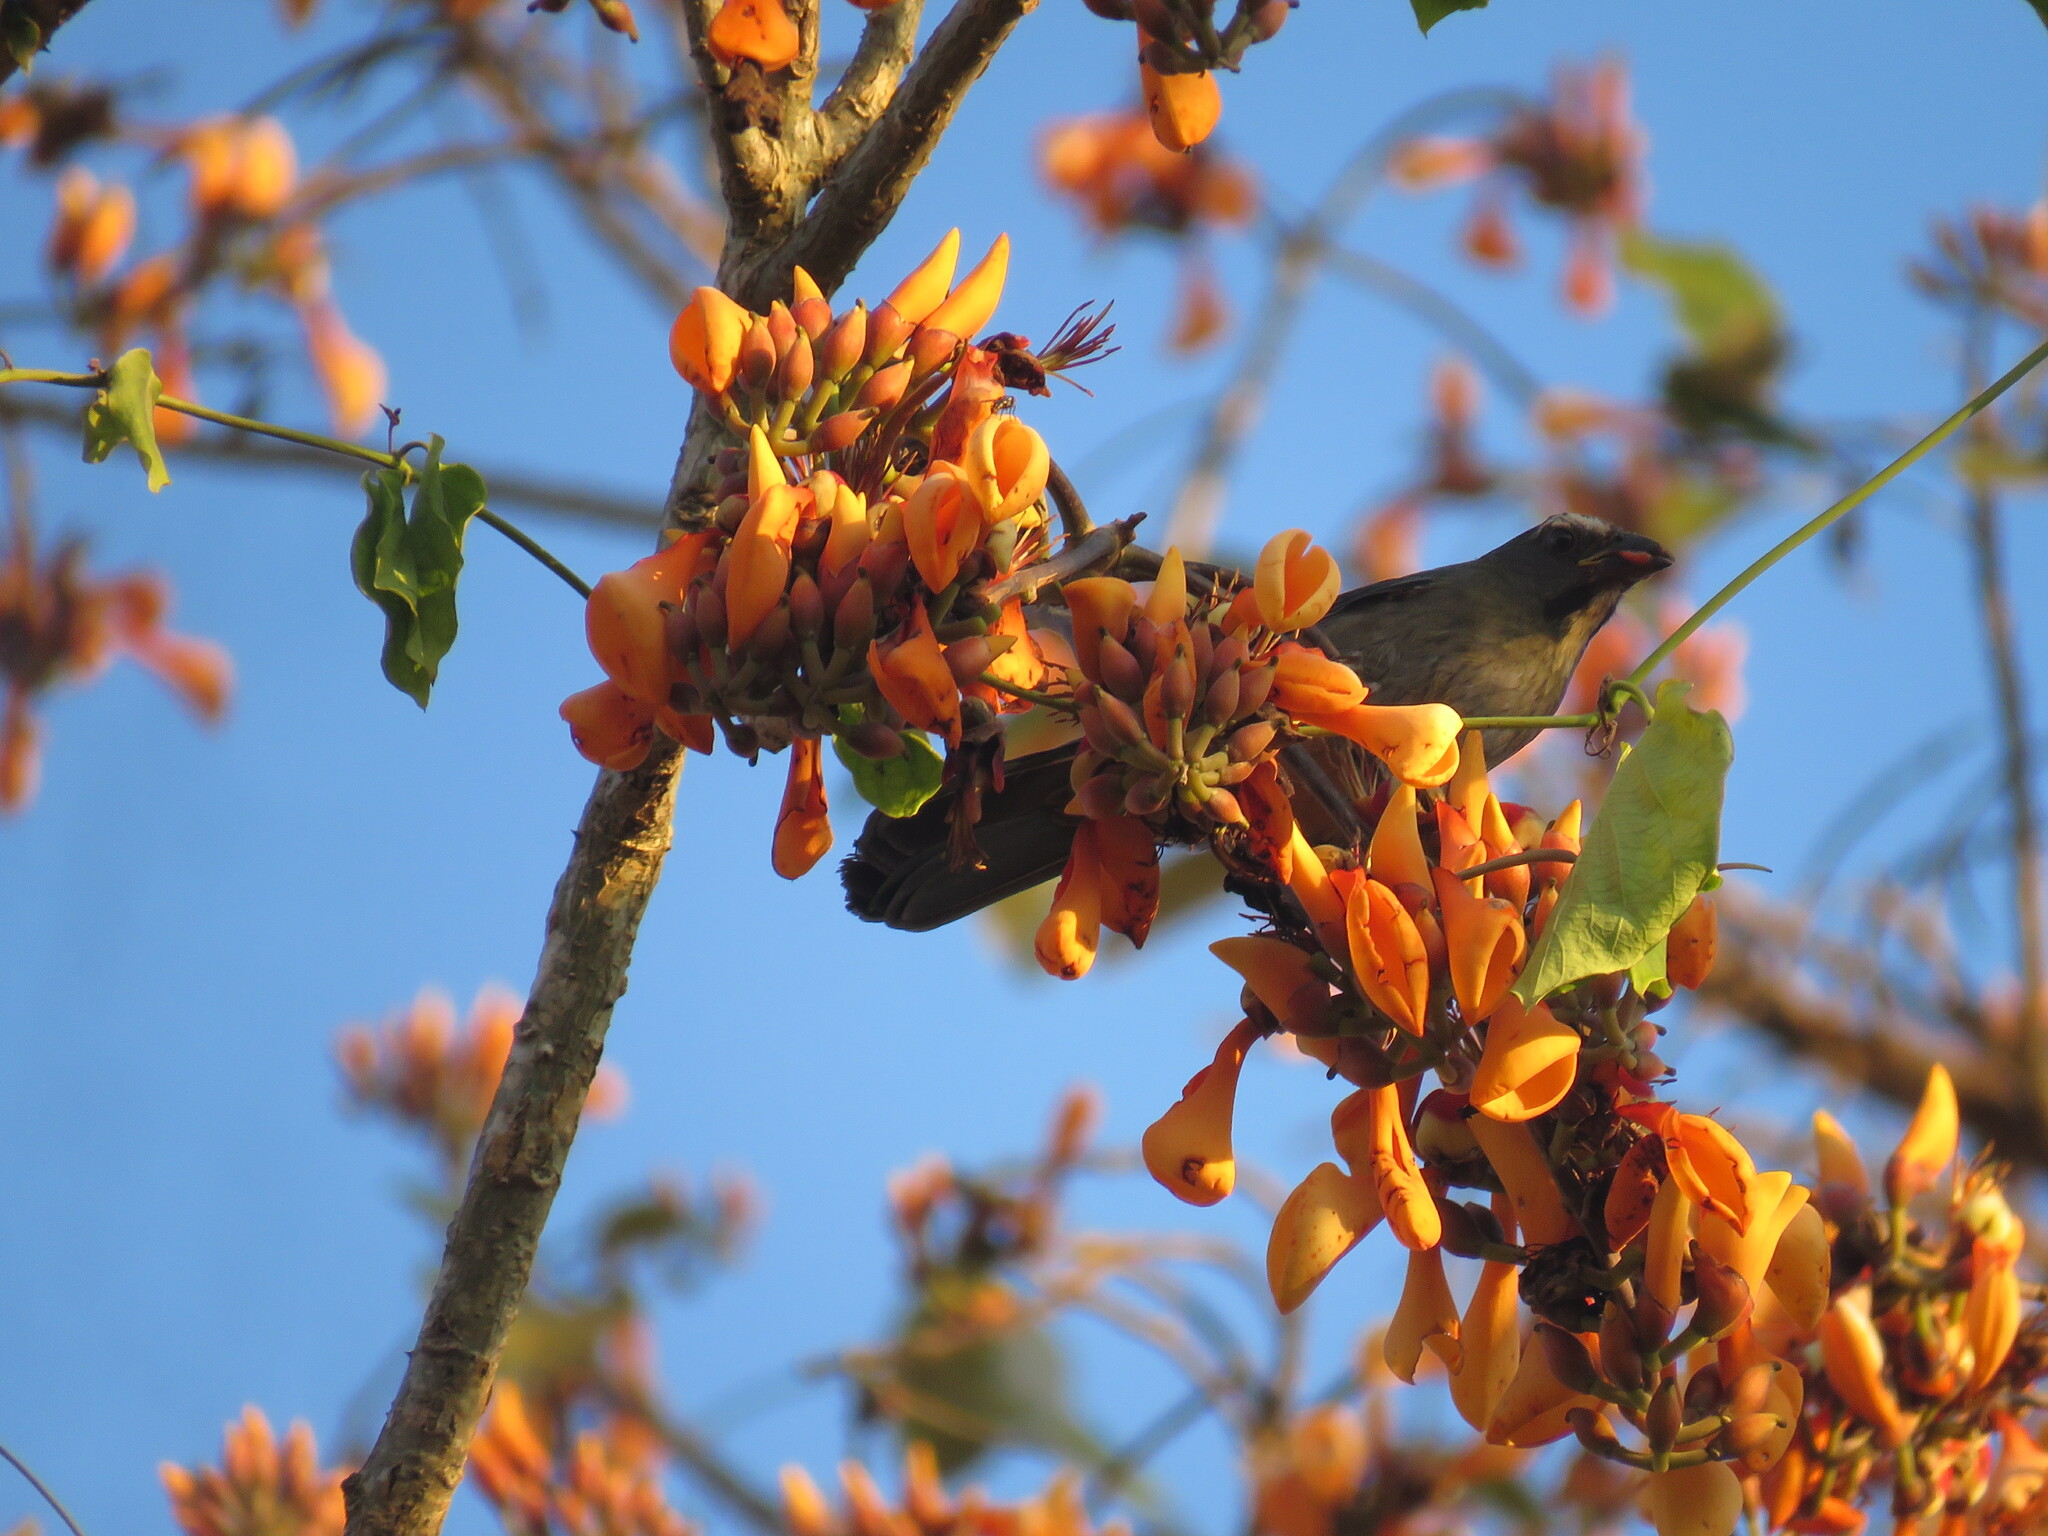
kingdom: Animalia
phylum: Chordata
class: Aves
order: Passeriformes
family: Thraupidae
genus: Saltator
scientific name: Saltator coerulescens
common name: Grayish saltator
